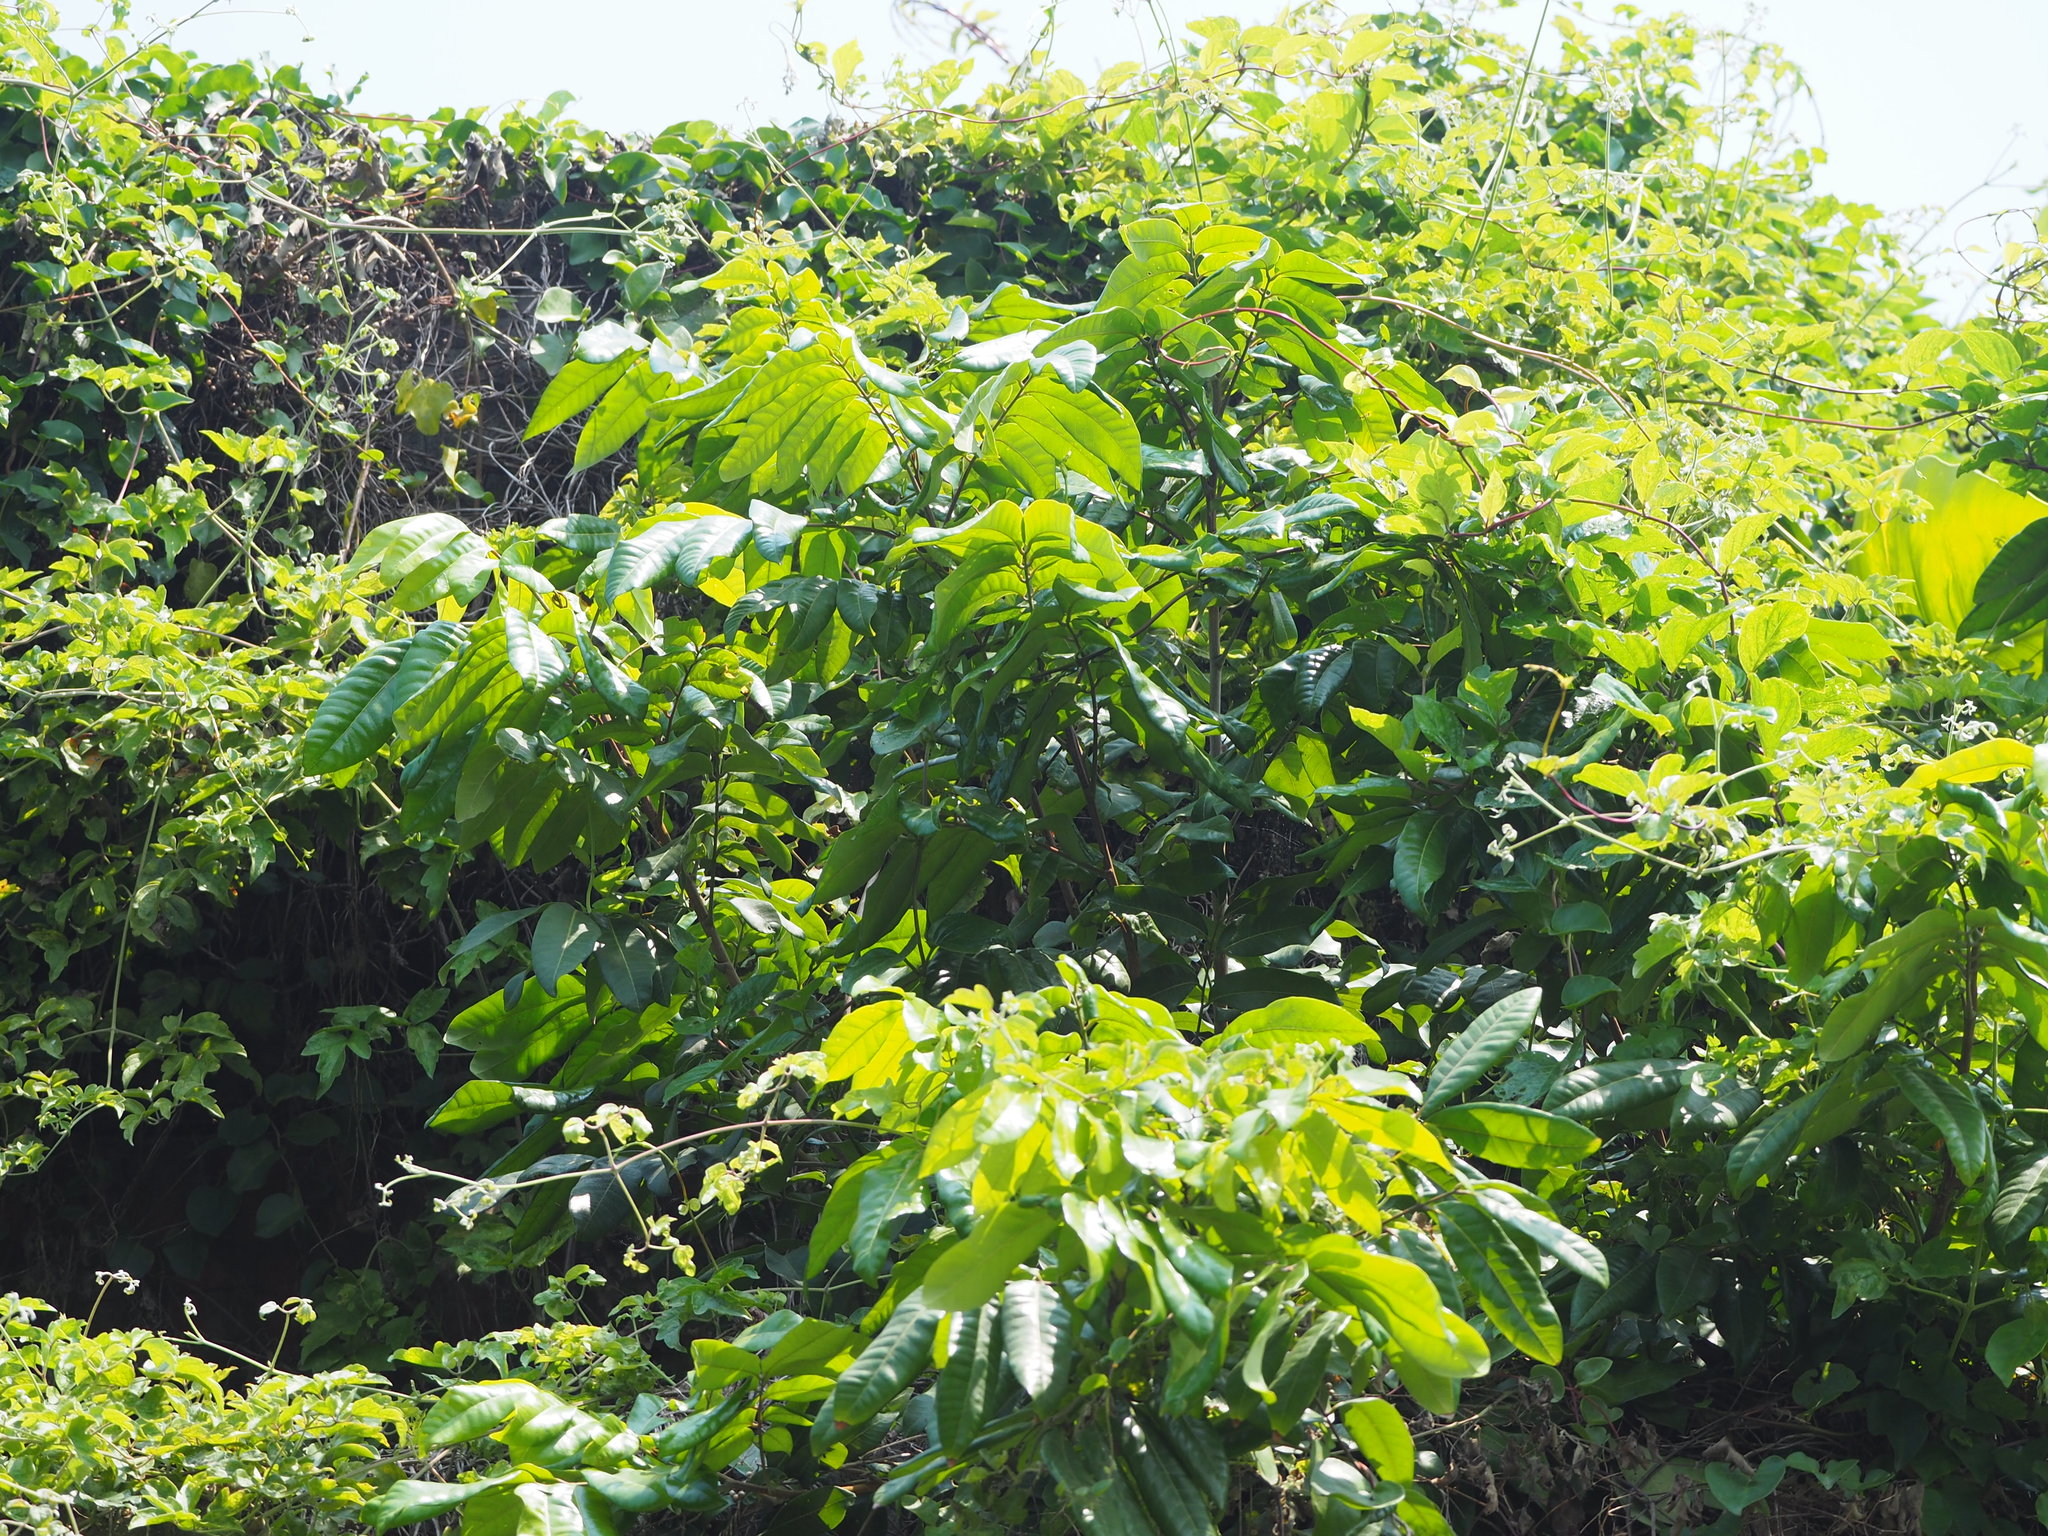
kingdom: Plantae
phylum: Tracheophyta
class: Magnoliopsida
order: Sapindales
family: Sapindaceae
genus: Dimocarpus
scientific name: Dimocarpus longan
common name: Longan
